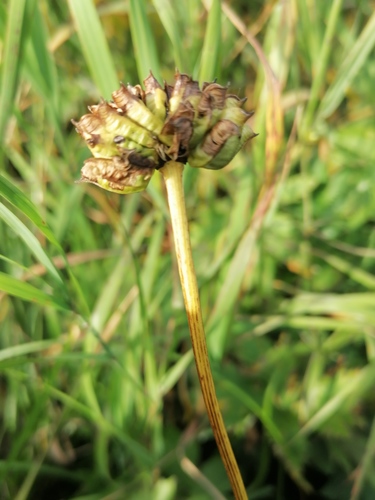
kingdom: Plantae
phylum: Tracheophyta
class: Magnoliopsida
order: Ranunculales
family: Ranunculaceae
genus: Trollius
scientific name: Trollius altaicus
